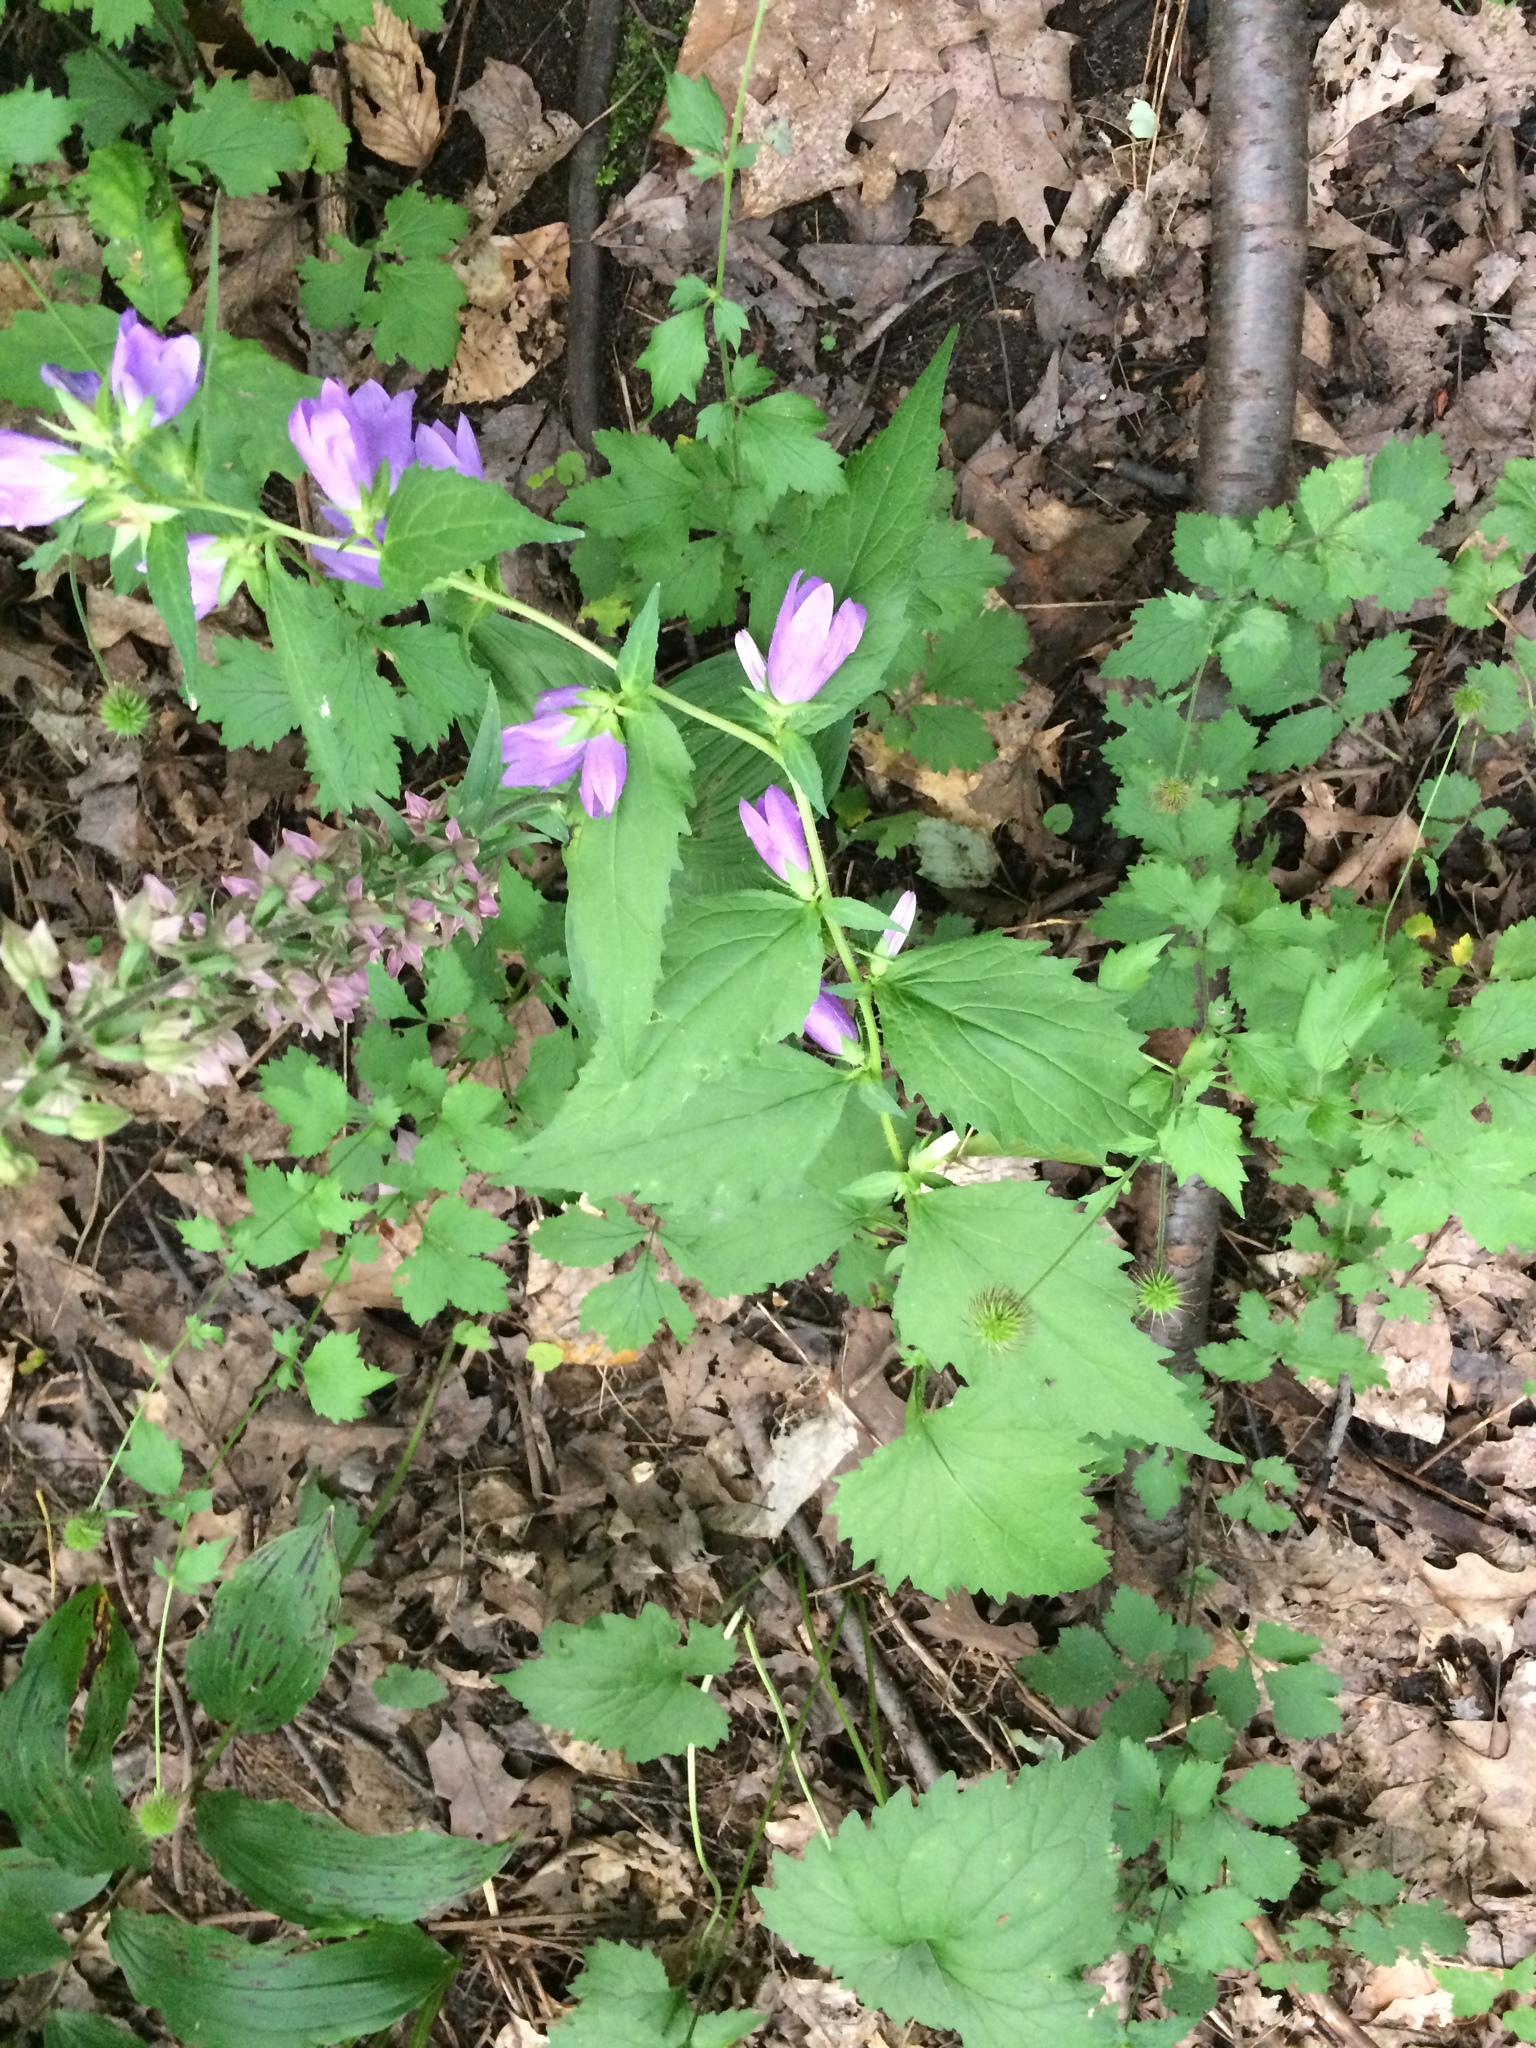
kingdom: Plantae
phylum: Tracheophyta
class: Magnoliopsida
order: Asterales
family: Campanulaceae
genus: Campanula
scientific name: Campanula trachelium
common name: Nettle-leaved bellflower
